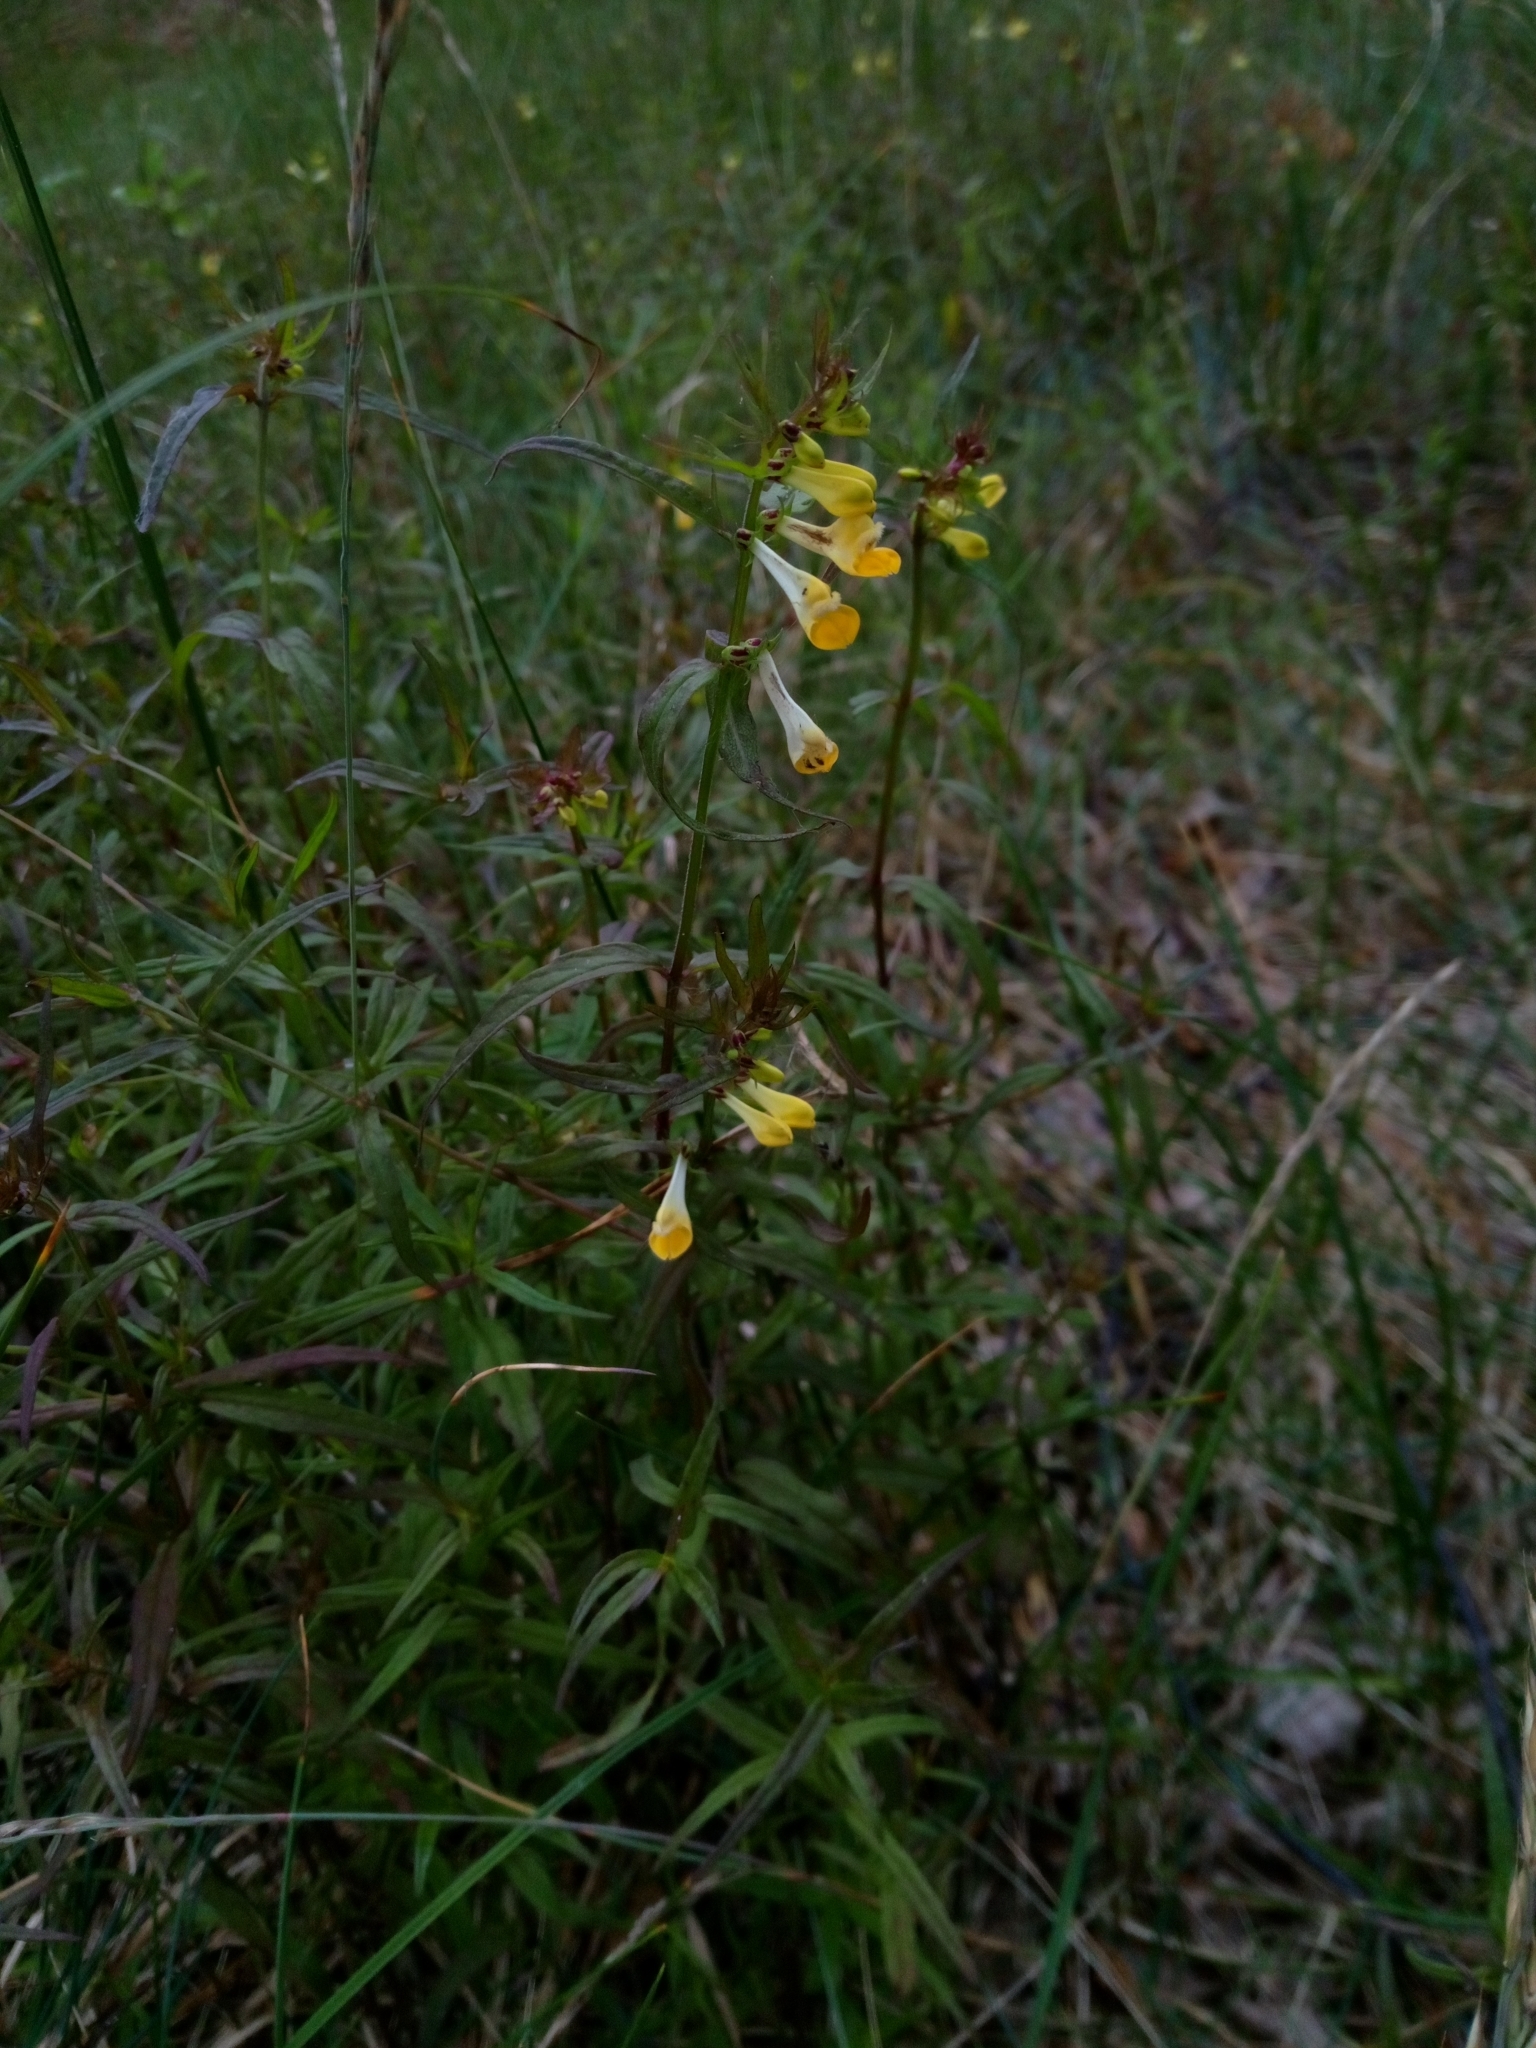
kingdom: Plantae
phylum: Tracheophyta
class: Magnoliopsida
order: Lamiales
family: Orobanchaceae
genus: Melampyrum
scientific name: Melampyrum pratense
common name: Common cow-wheat
